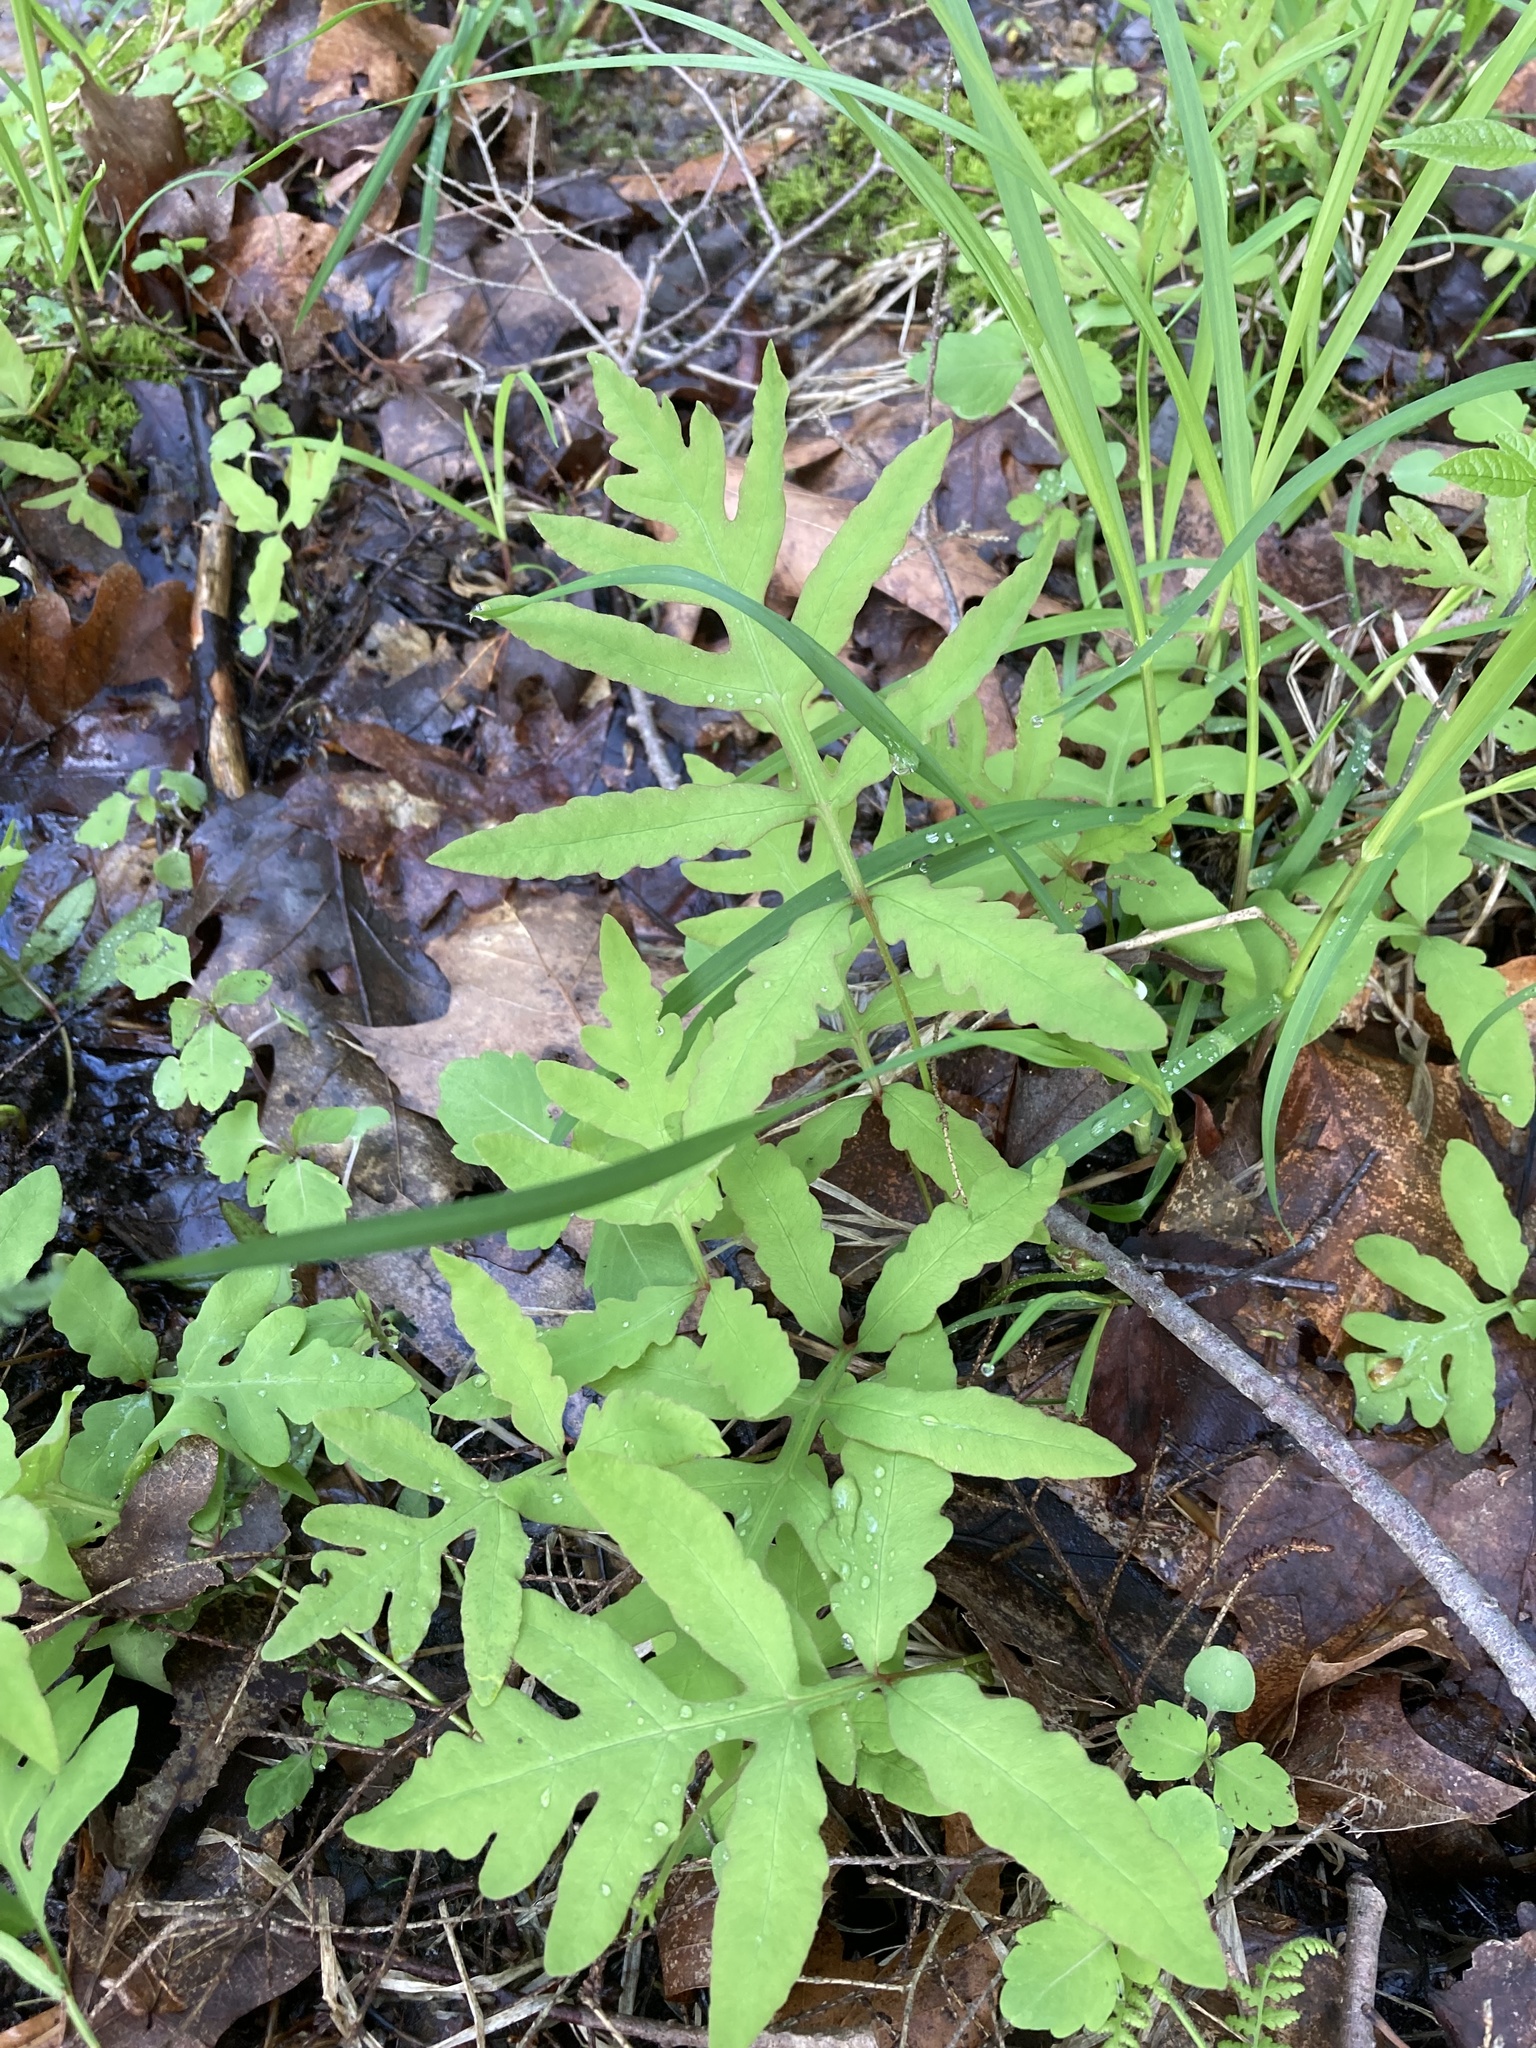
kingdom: Plantae
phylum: Tracheophyta
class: Polypodiopsida
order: Polypodiales
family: Onocleaceae
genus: Onoclea
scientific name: Onoclea sensibilis
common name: Sensitive fern
